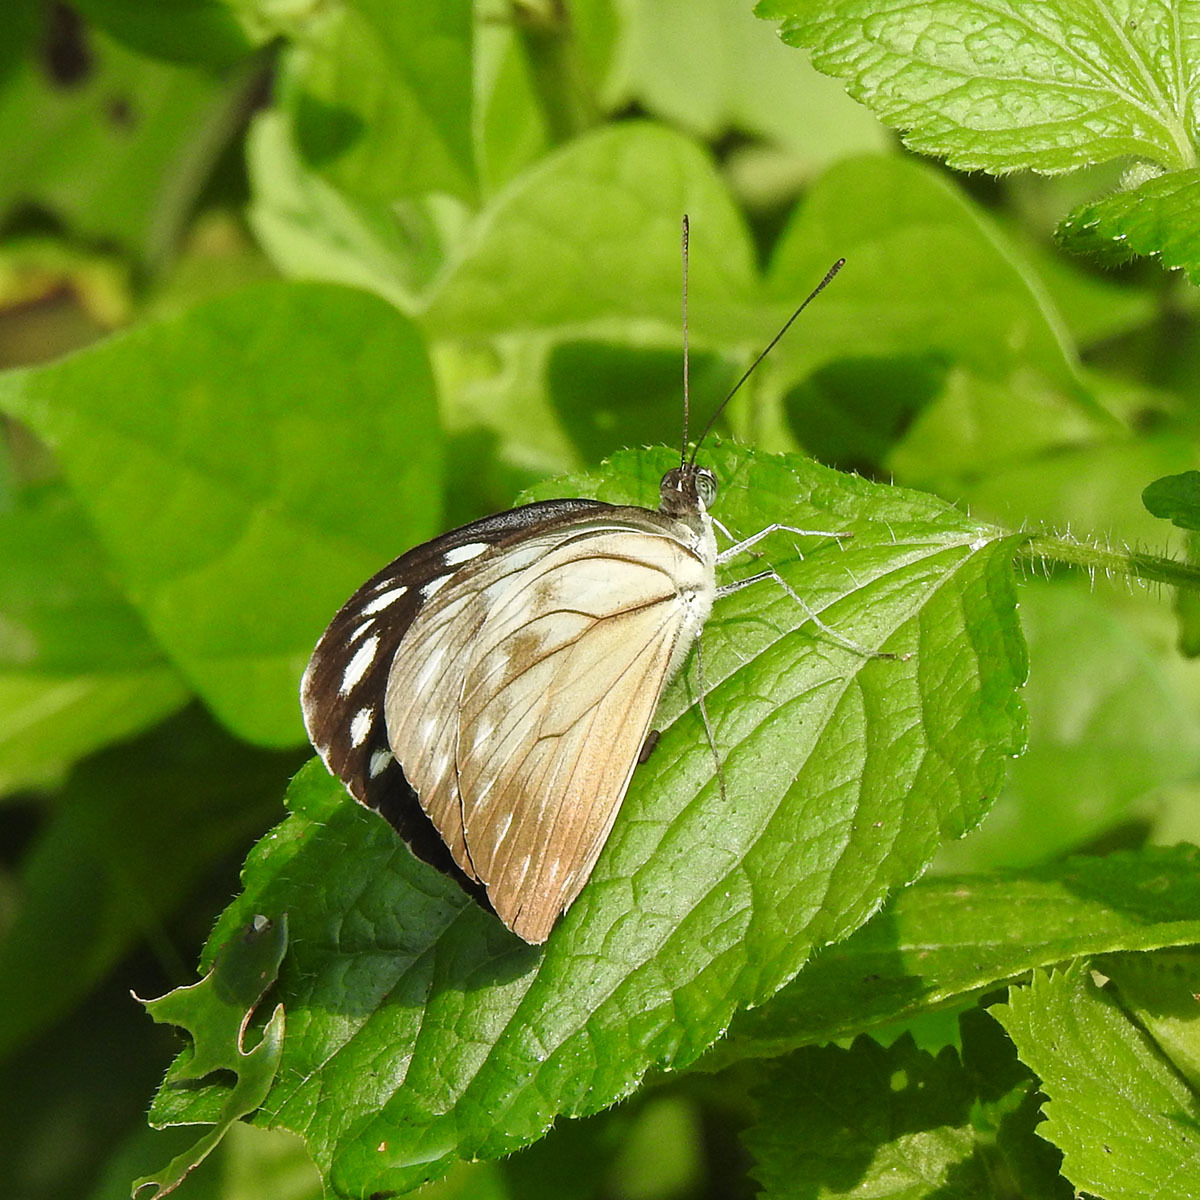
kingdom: Animalia
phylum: Arthropoda
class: Insecta
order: Lepidoptera
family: Pieridae
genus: Pareronia
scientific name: Pareronia hippia
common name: Indian wanderer
